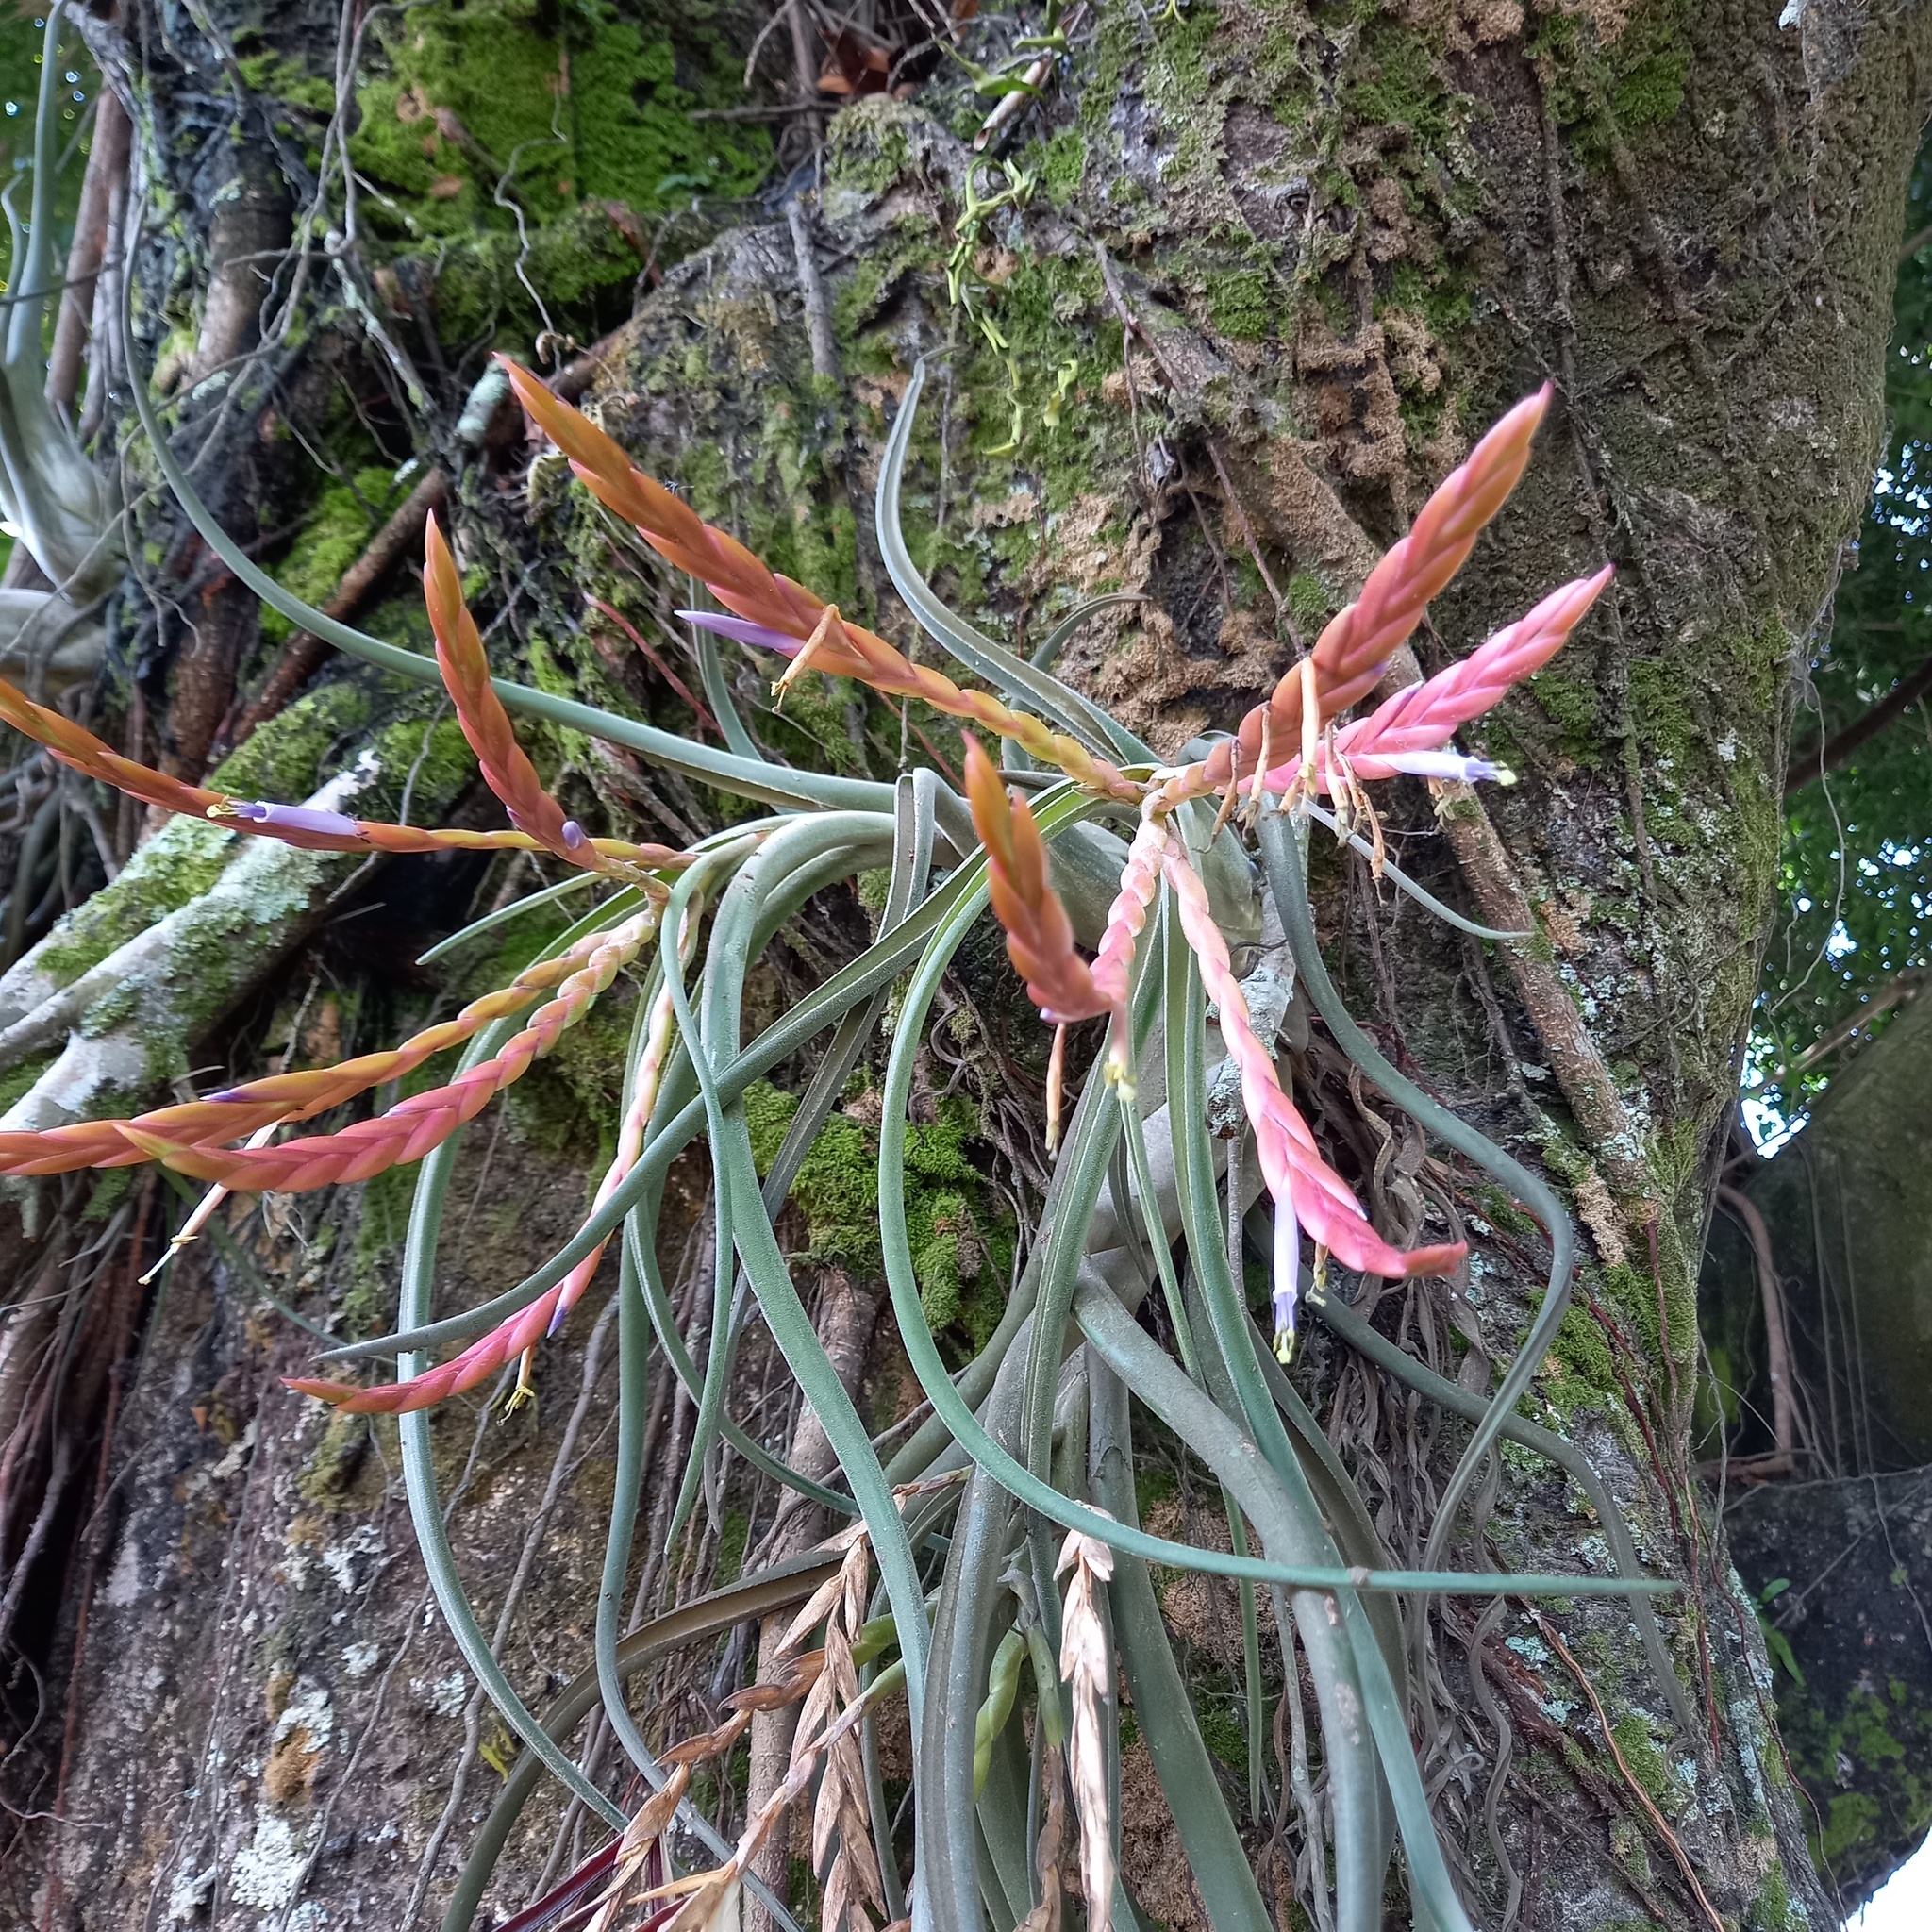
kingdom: Plantae
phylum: Tracheophyta
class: Liliopsida
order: Poales
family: Bromeliaceae
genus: Tillandsia
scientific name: Tillandsia caput-medusae
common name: Octopus plant
